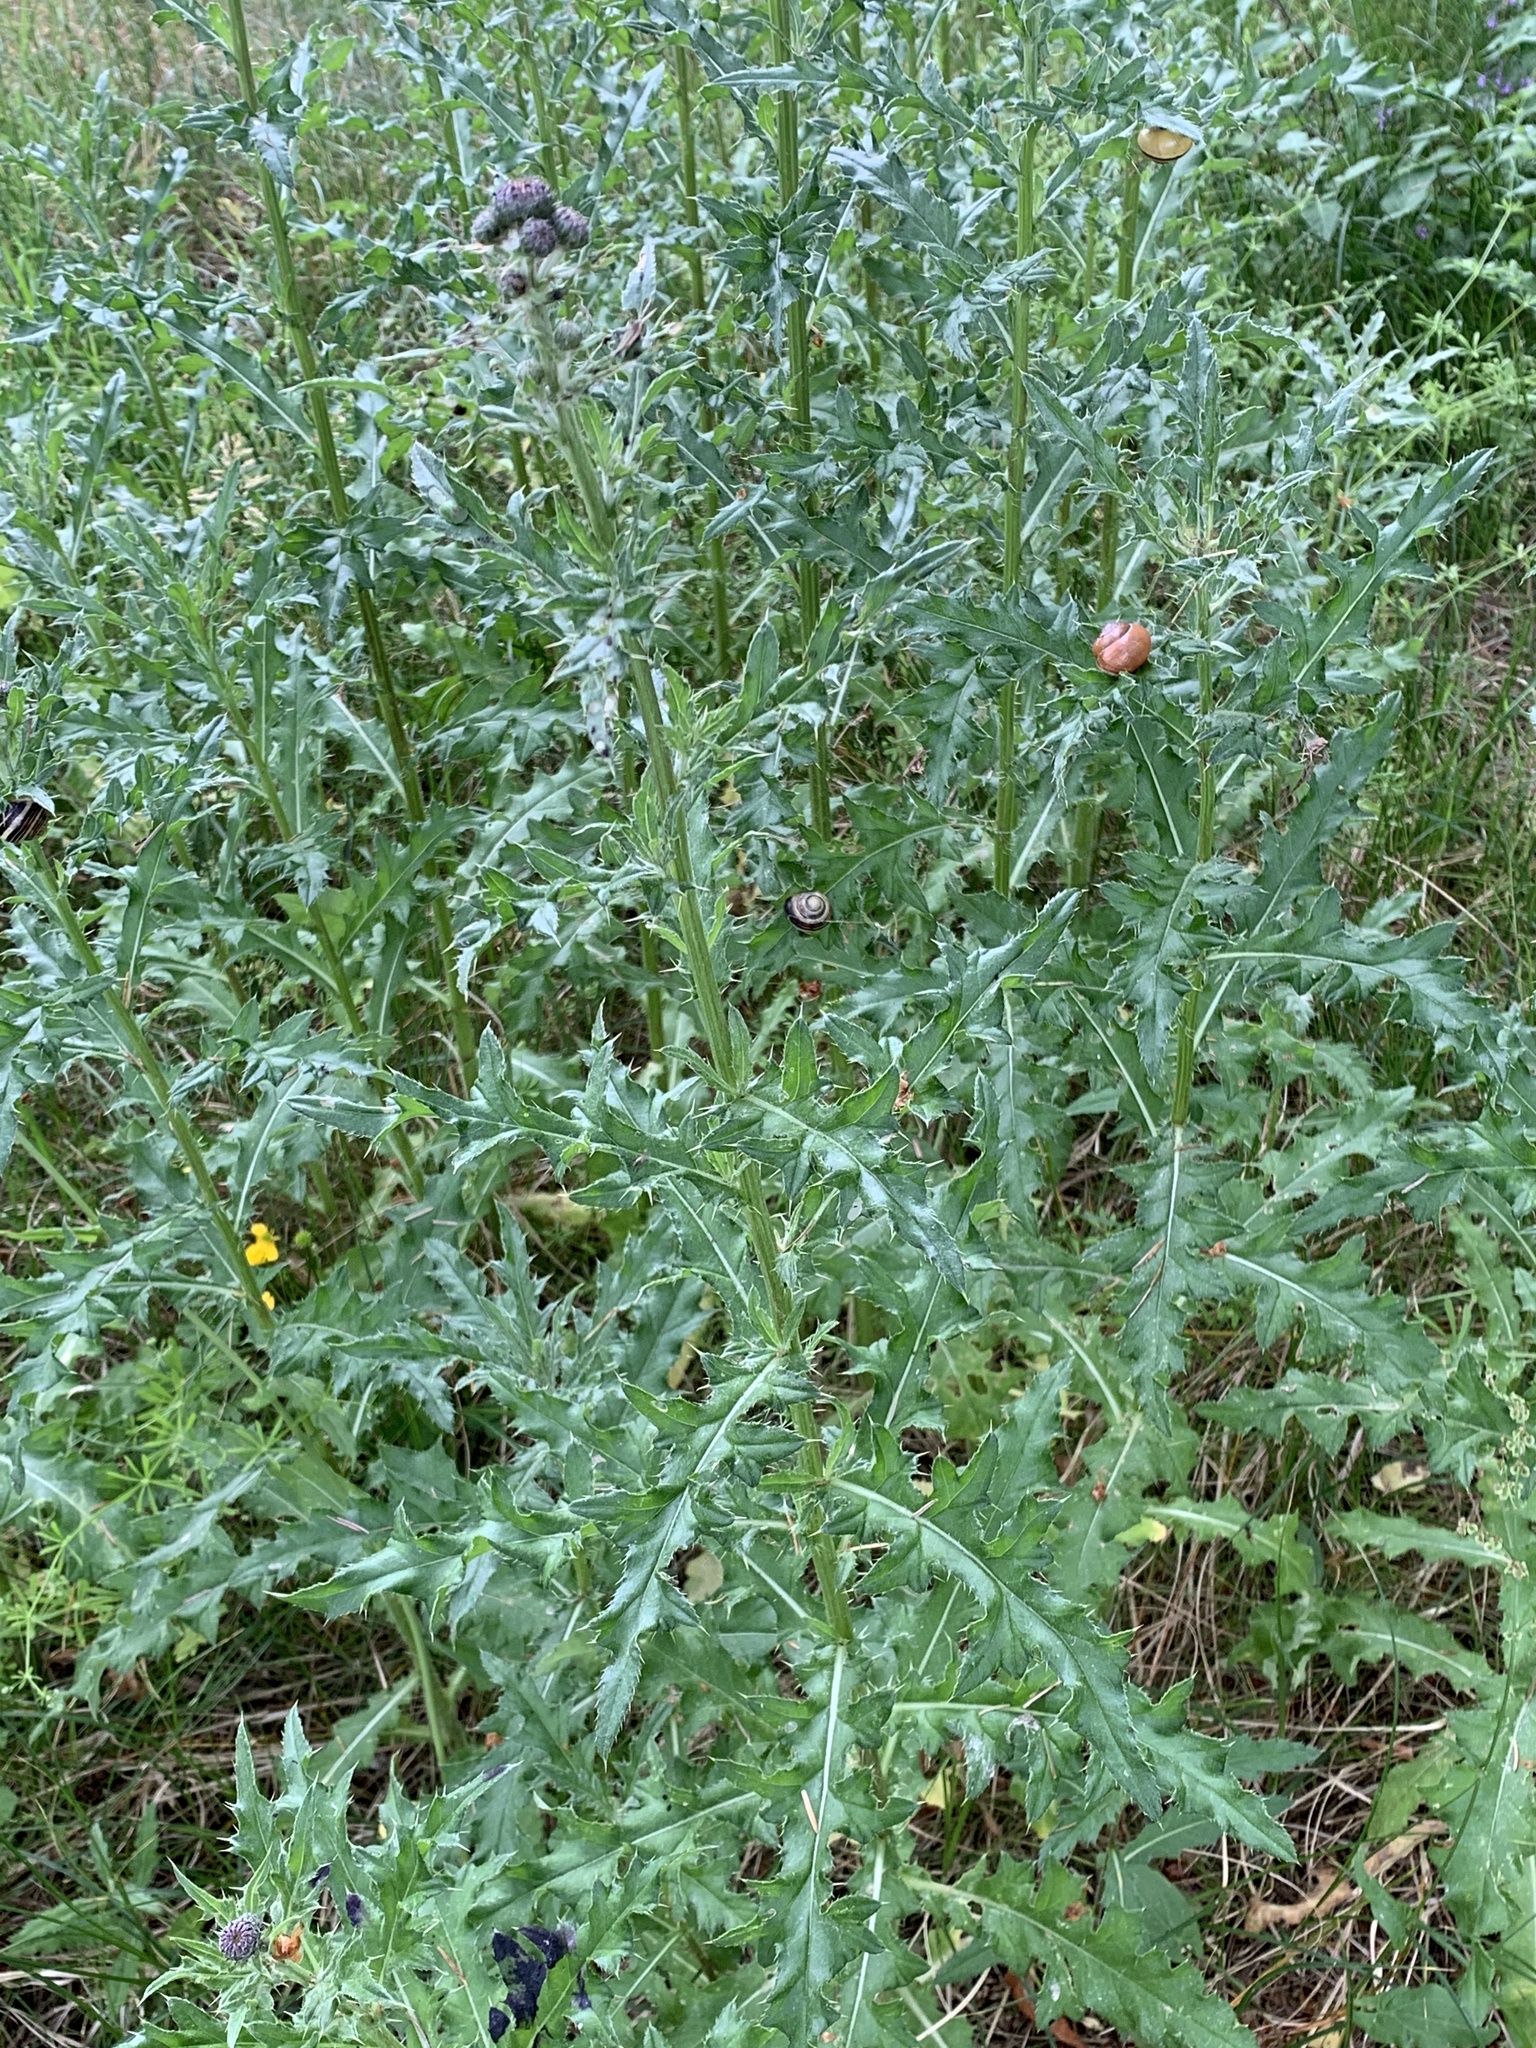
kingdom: Plantae
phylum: Tracheophyta
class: Magnoliopsida
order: Asterales
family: Asteraceae
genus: Cirsium
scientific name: Cirsium arvense
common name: Creeping thistle
